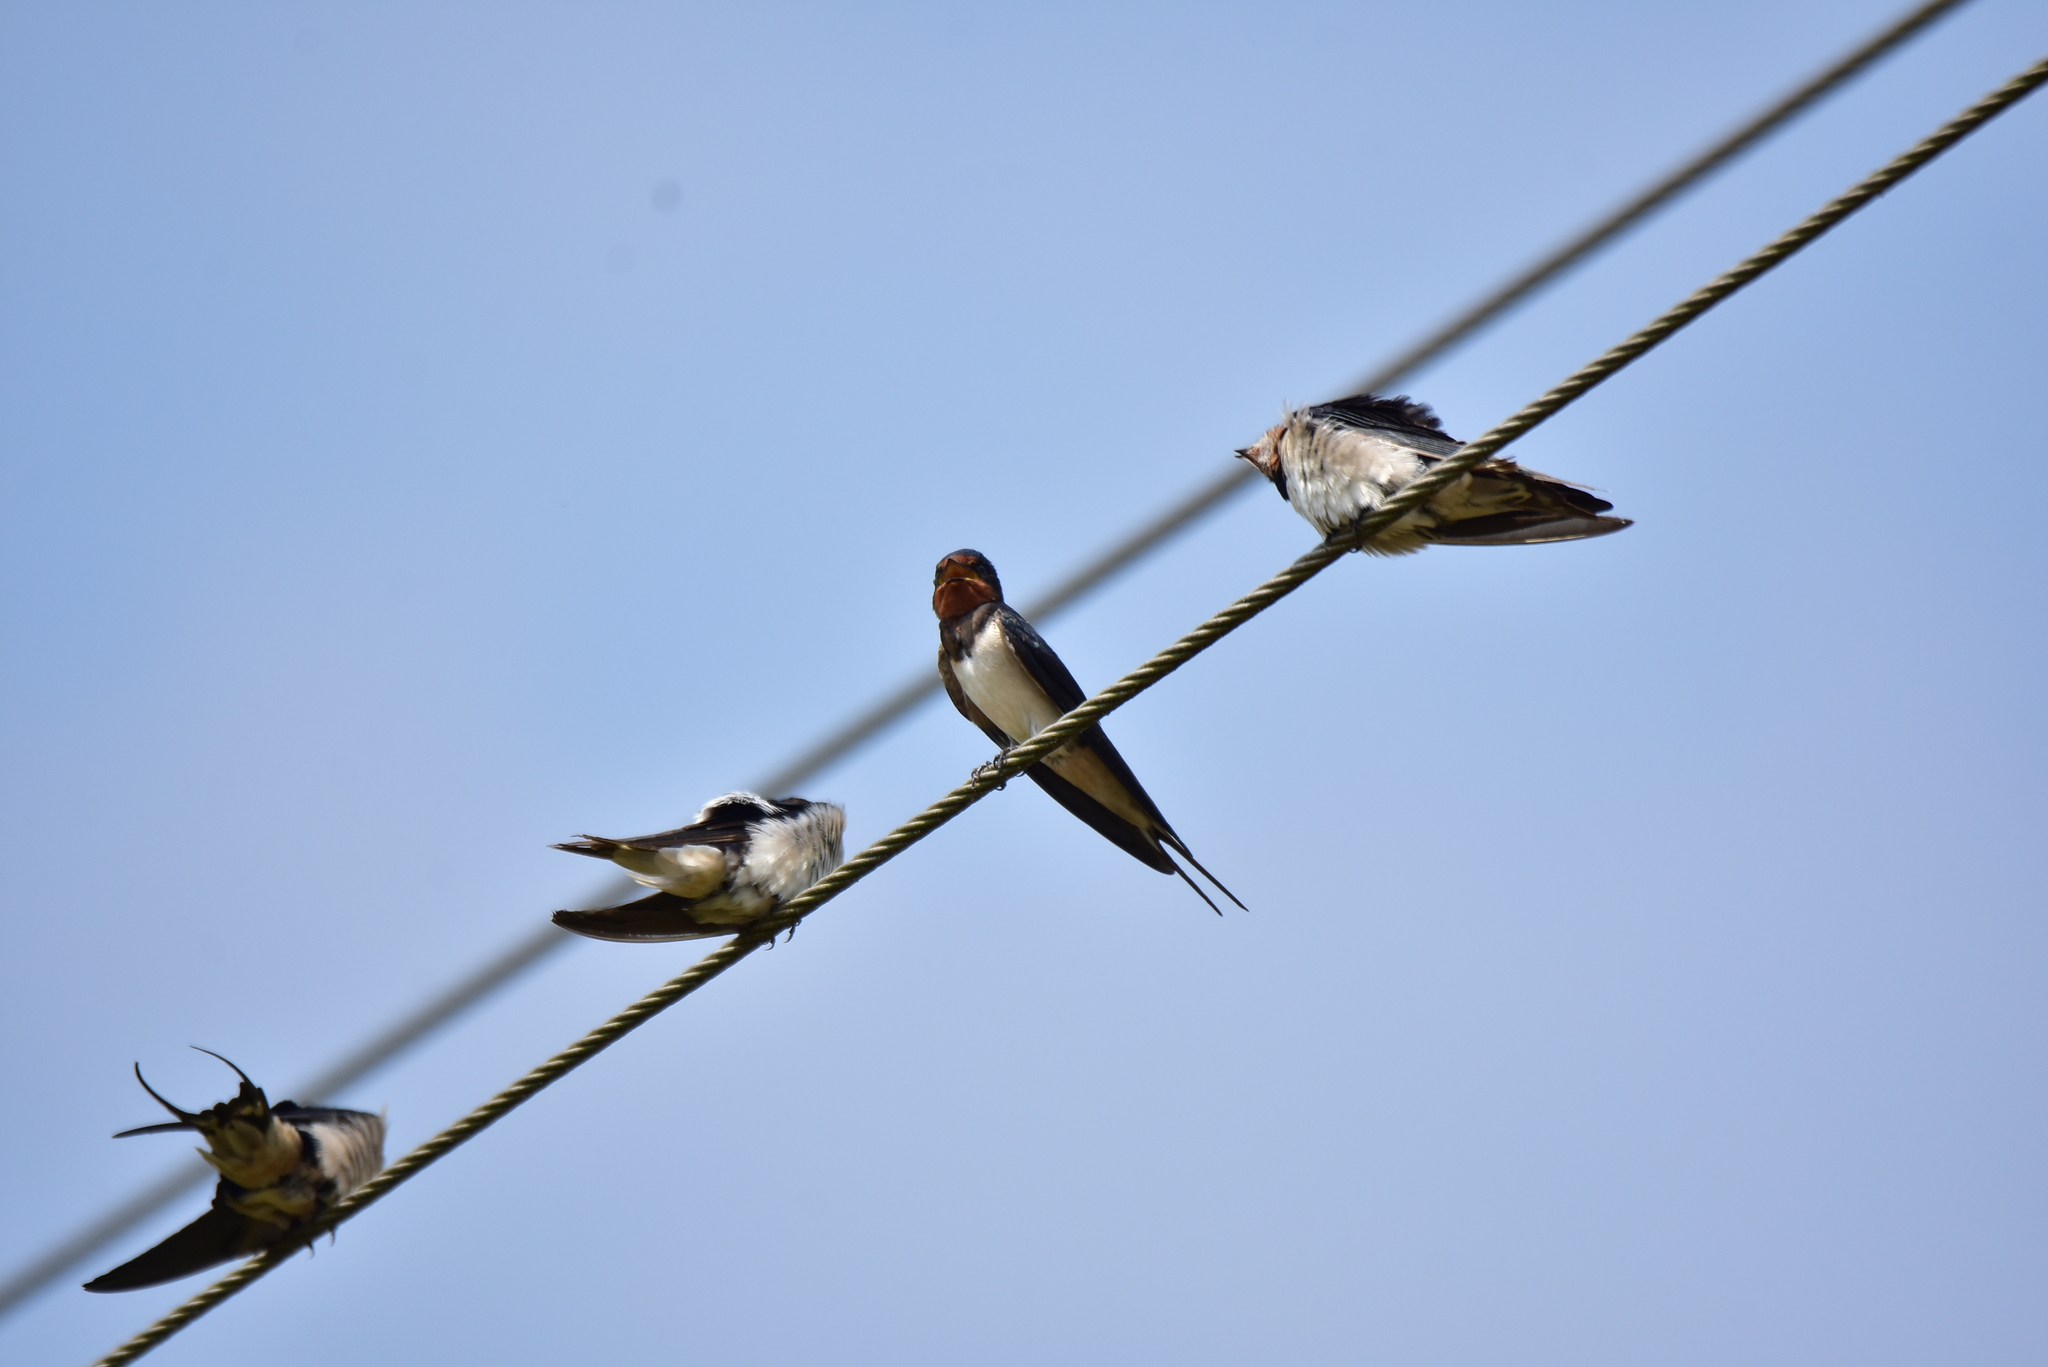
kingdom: Animalia
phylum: Chordata
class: Aves
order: Passeriformes
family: Hirundinidae
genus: Hirundo
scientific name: Hirundo rustica
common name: Barn swallow
